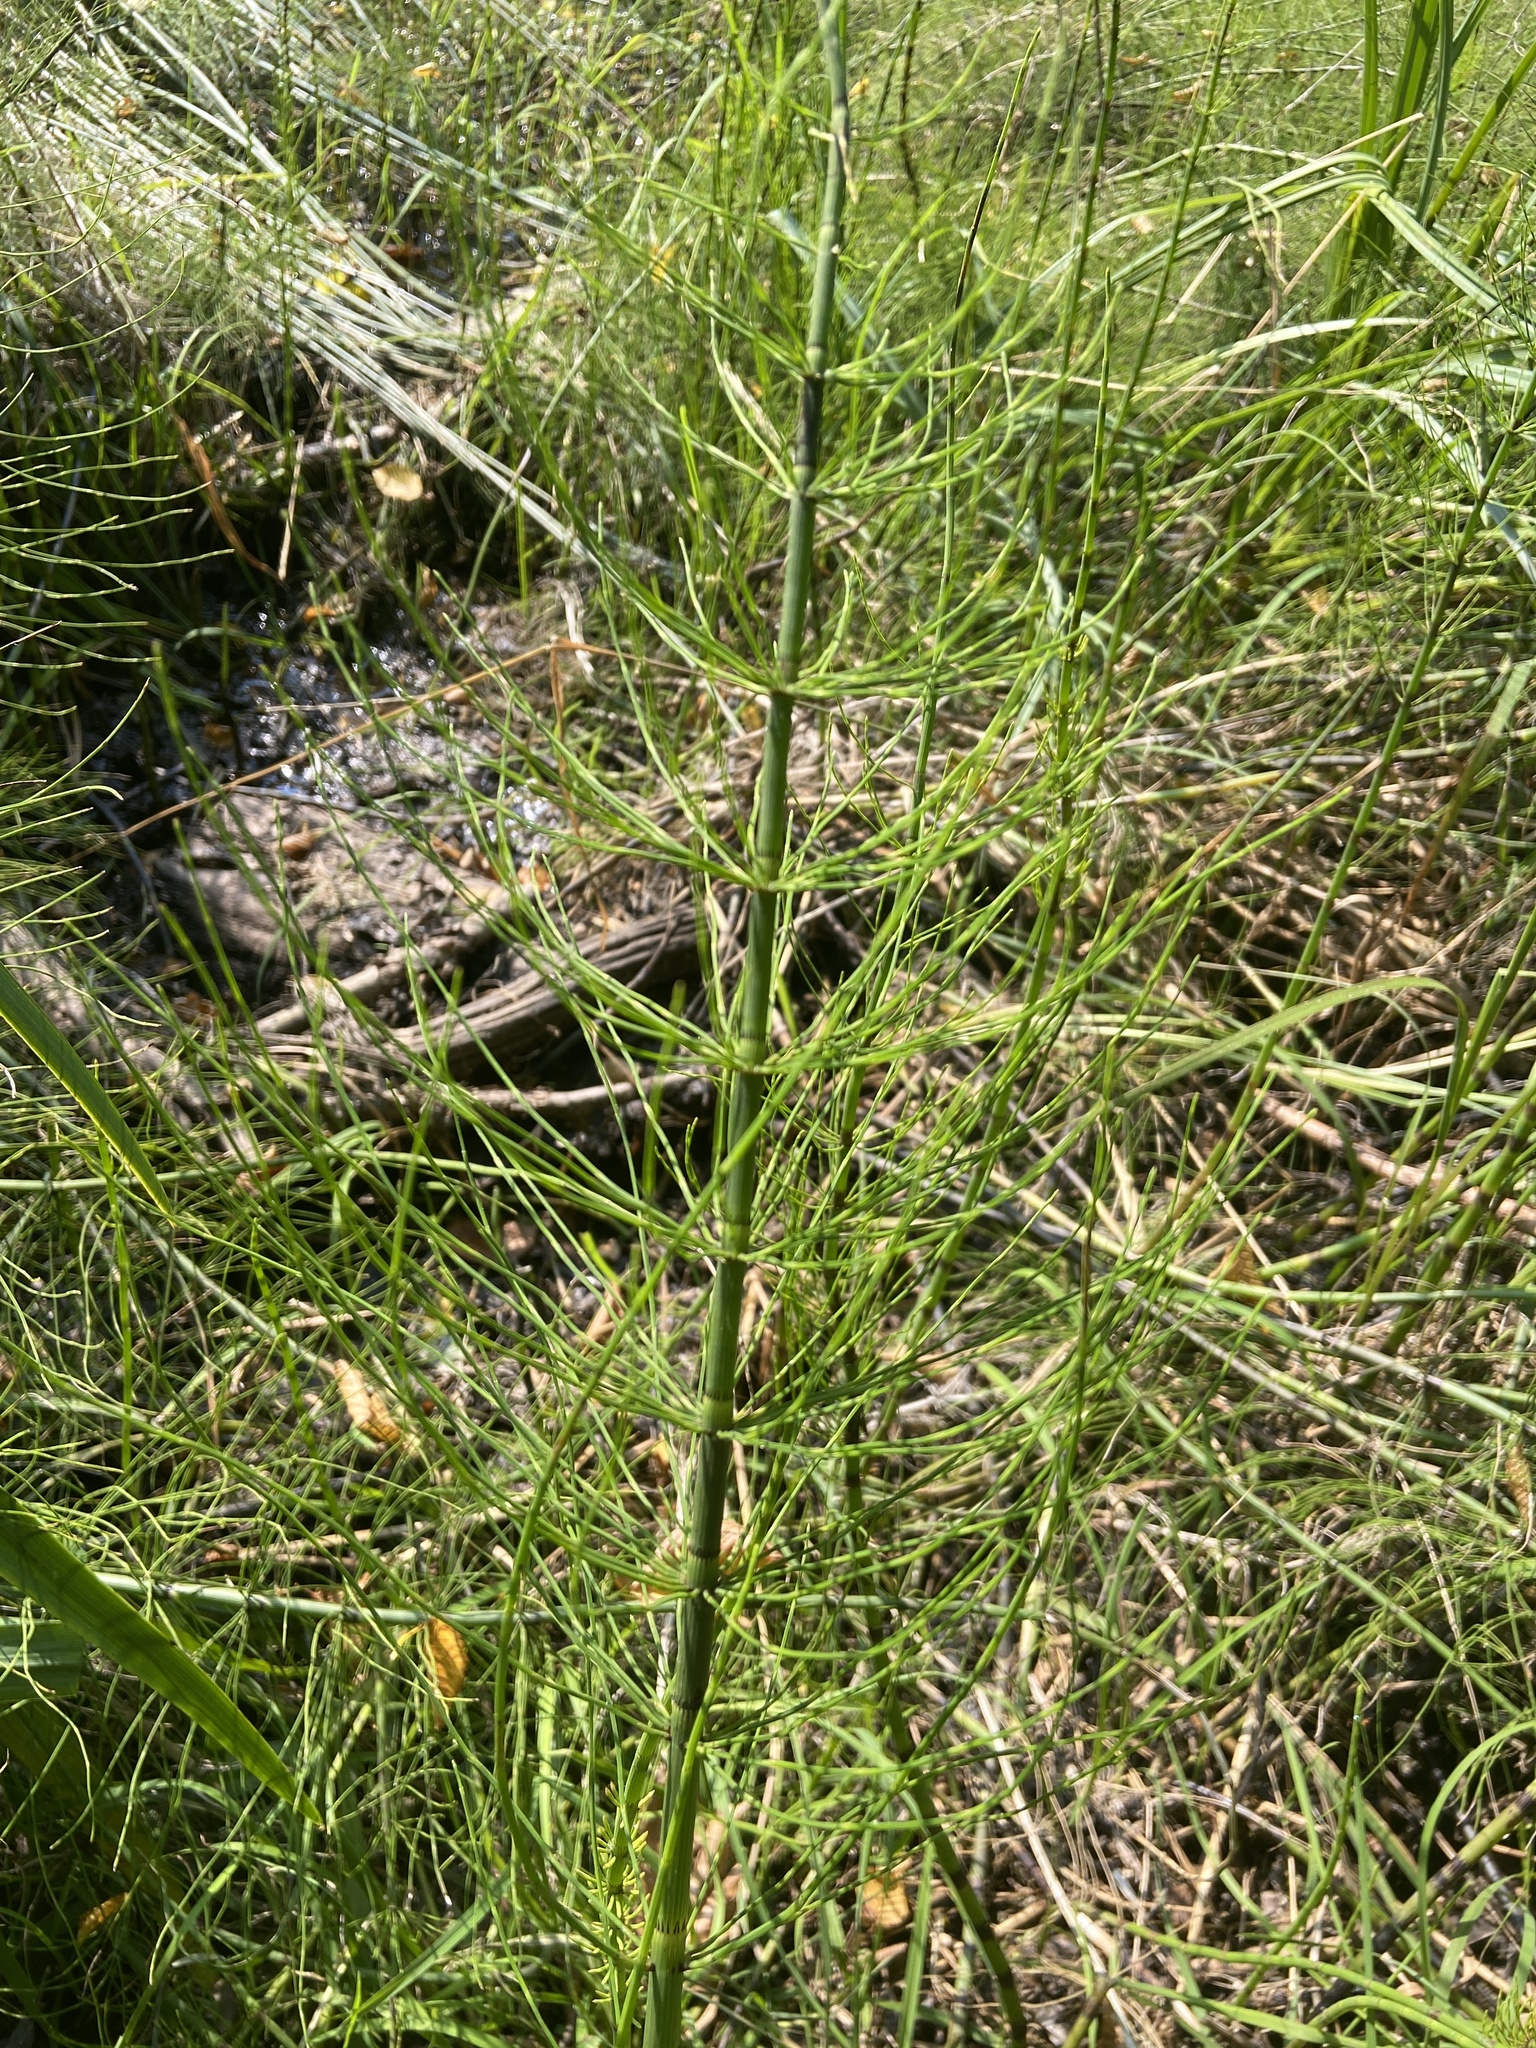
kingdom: Plantae
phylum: Tracheophyta
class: Polypodiopsida
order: Equisetales
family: Equisetaceae
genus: Equisetum
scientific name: Equisetum fluviatile
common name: Water horsetail
